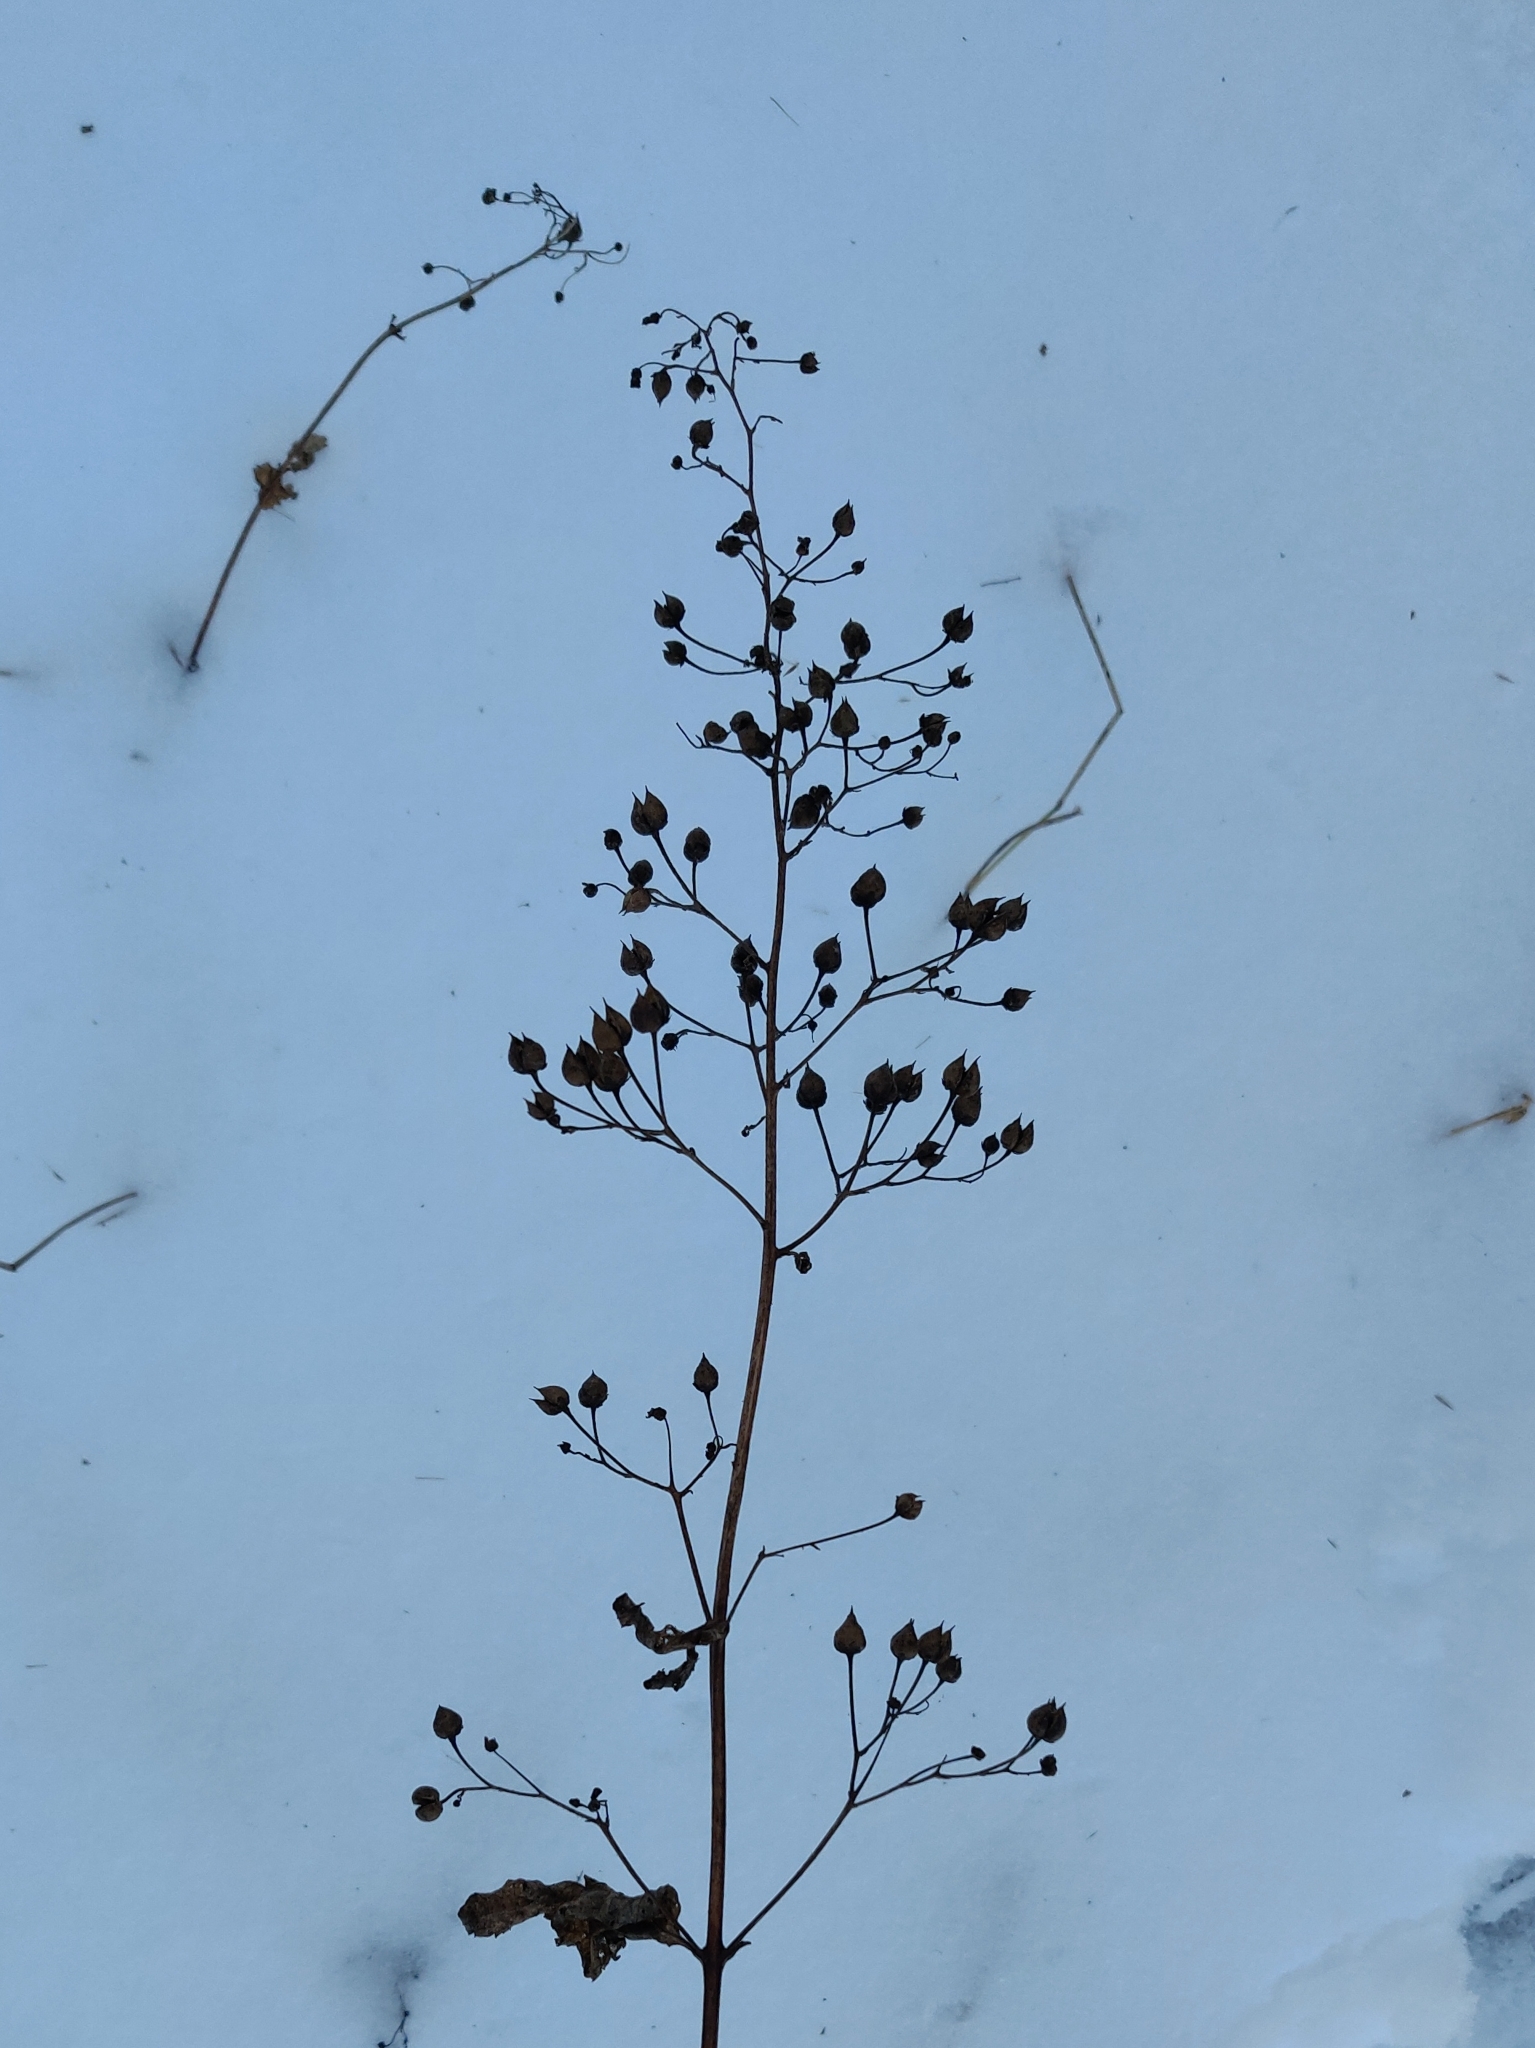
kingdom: Plantae
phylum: Tracheophyta
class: Magnoliopsida
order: Lamiales
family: Scrophulariaceae
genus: Scrophularia
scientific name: Scrophularia nodosa
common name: Common figwort
